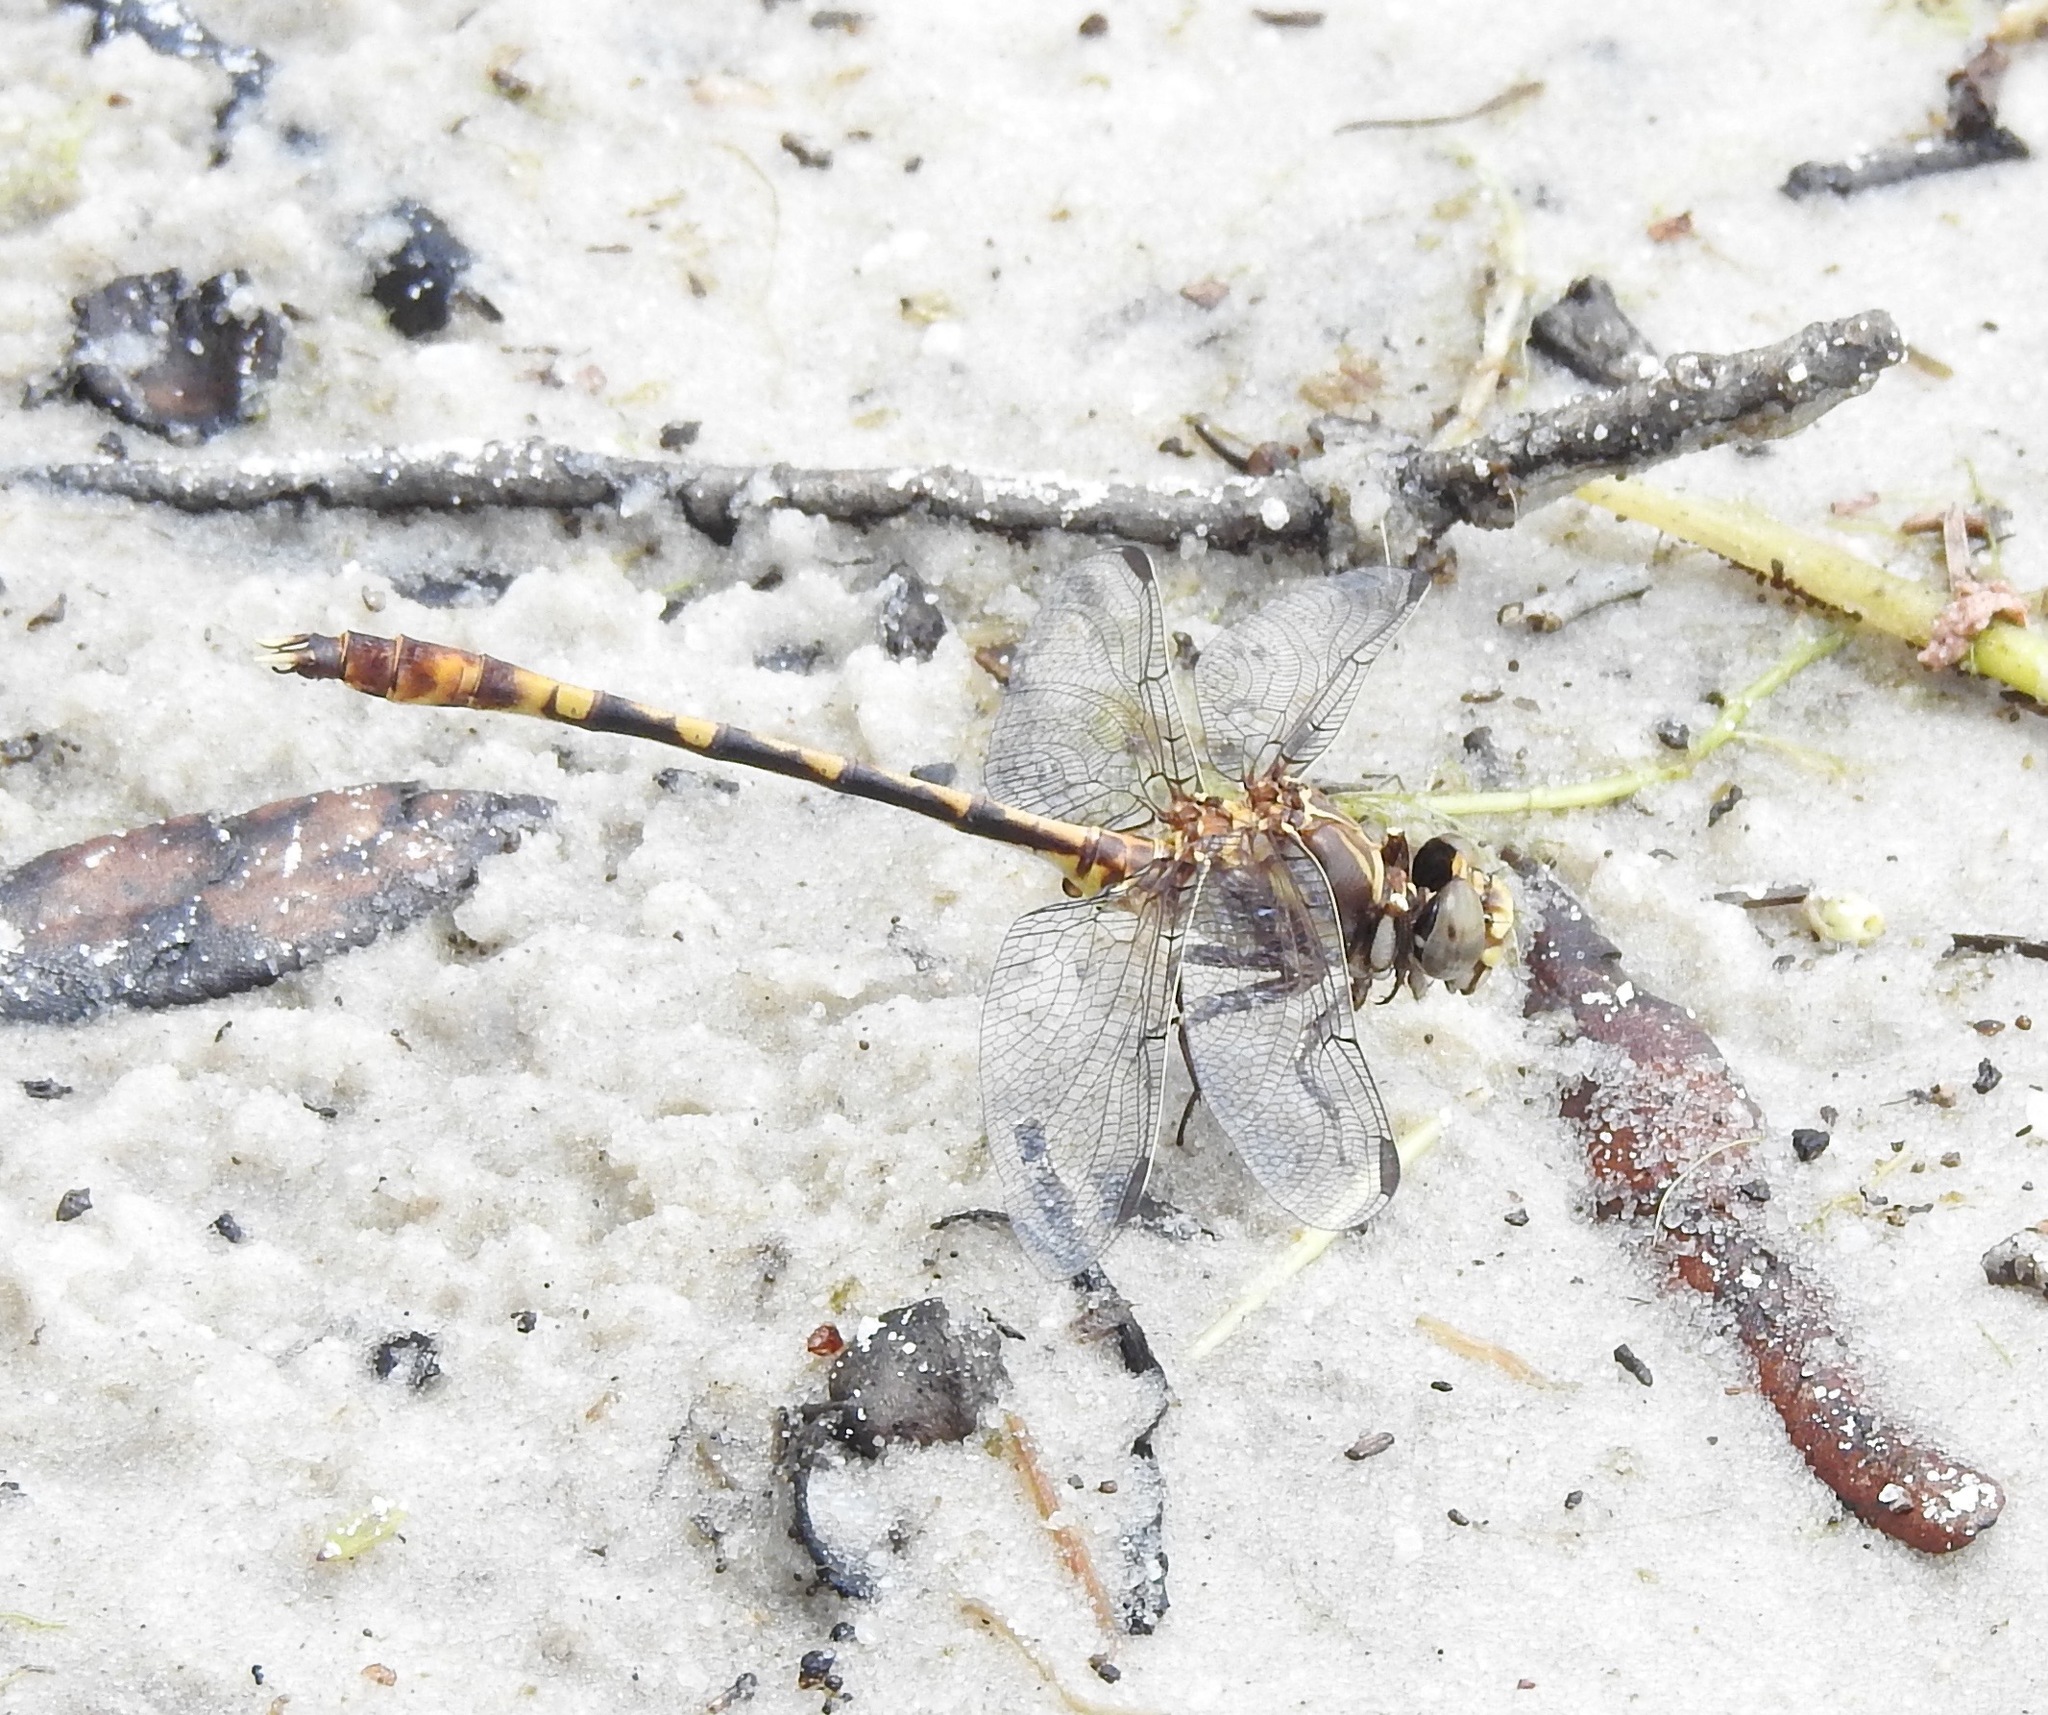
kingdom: Animalia
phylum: Arthropoda
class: Insecta
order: Odonata
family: Gomphidae
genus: Progomphus
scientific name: Progomphus alachuensis
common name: Tawny sanddragon
